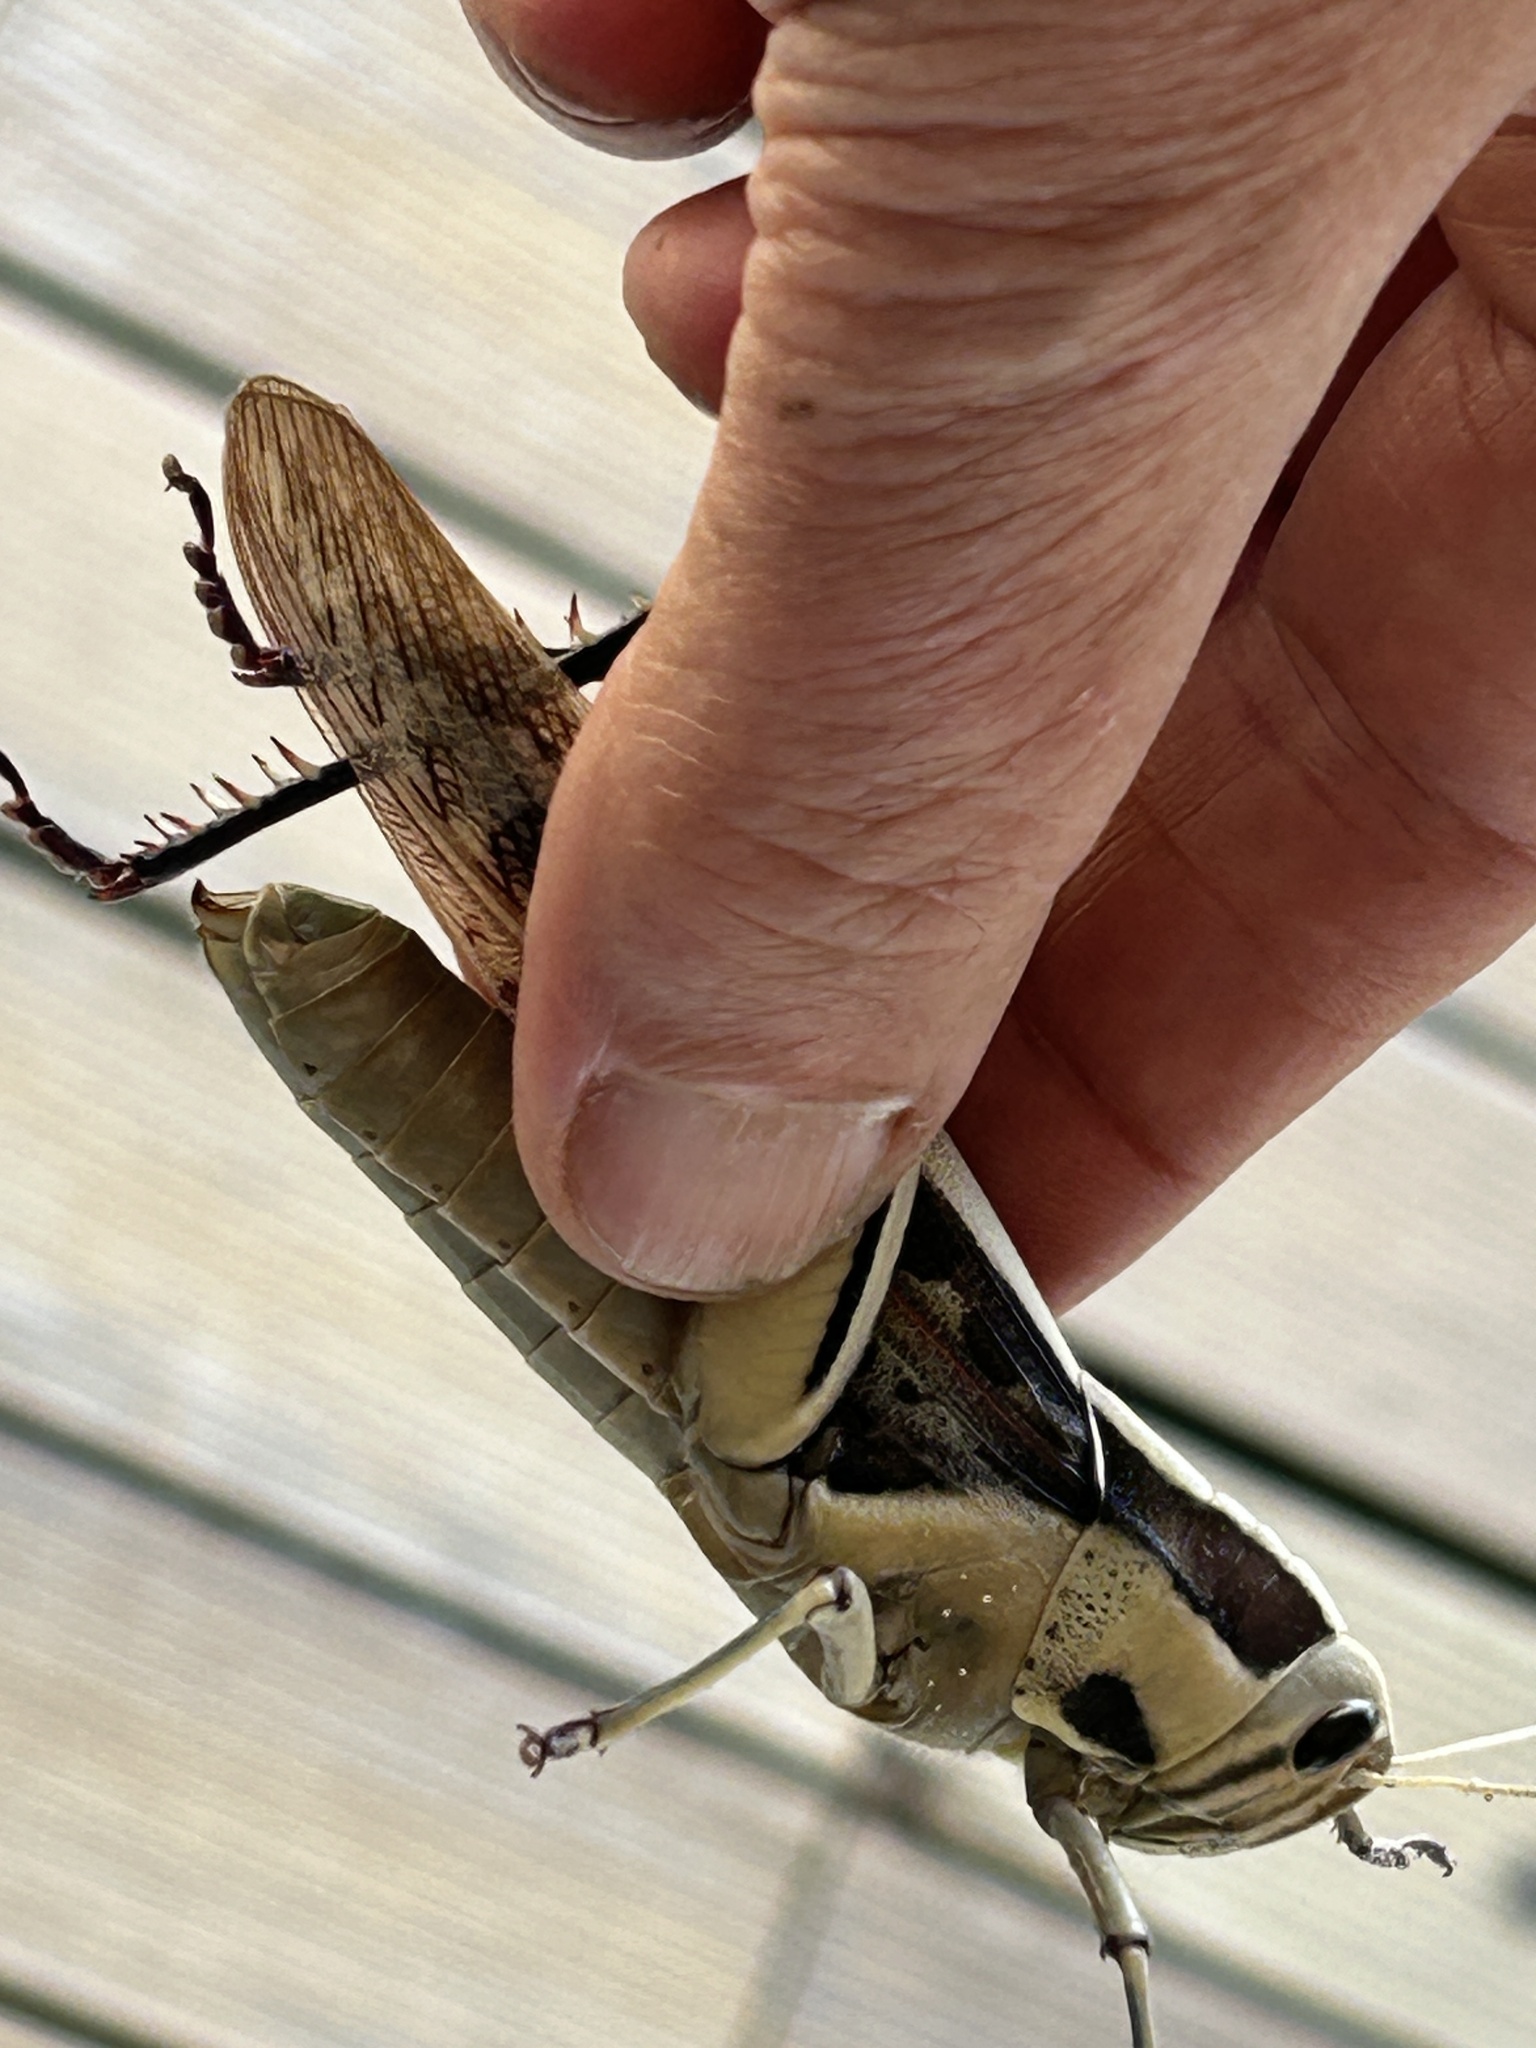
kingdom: Animalia
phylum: Arthropoda
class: Insecta
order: Orthoptera
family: Acrididae
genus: Acanthacris
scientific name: Acanthacris ruficornis
